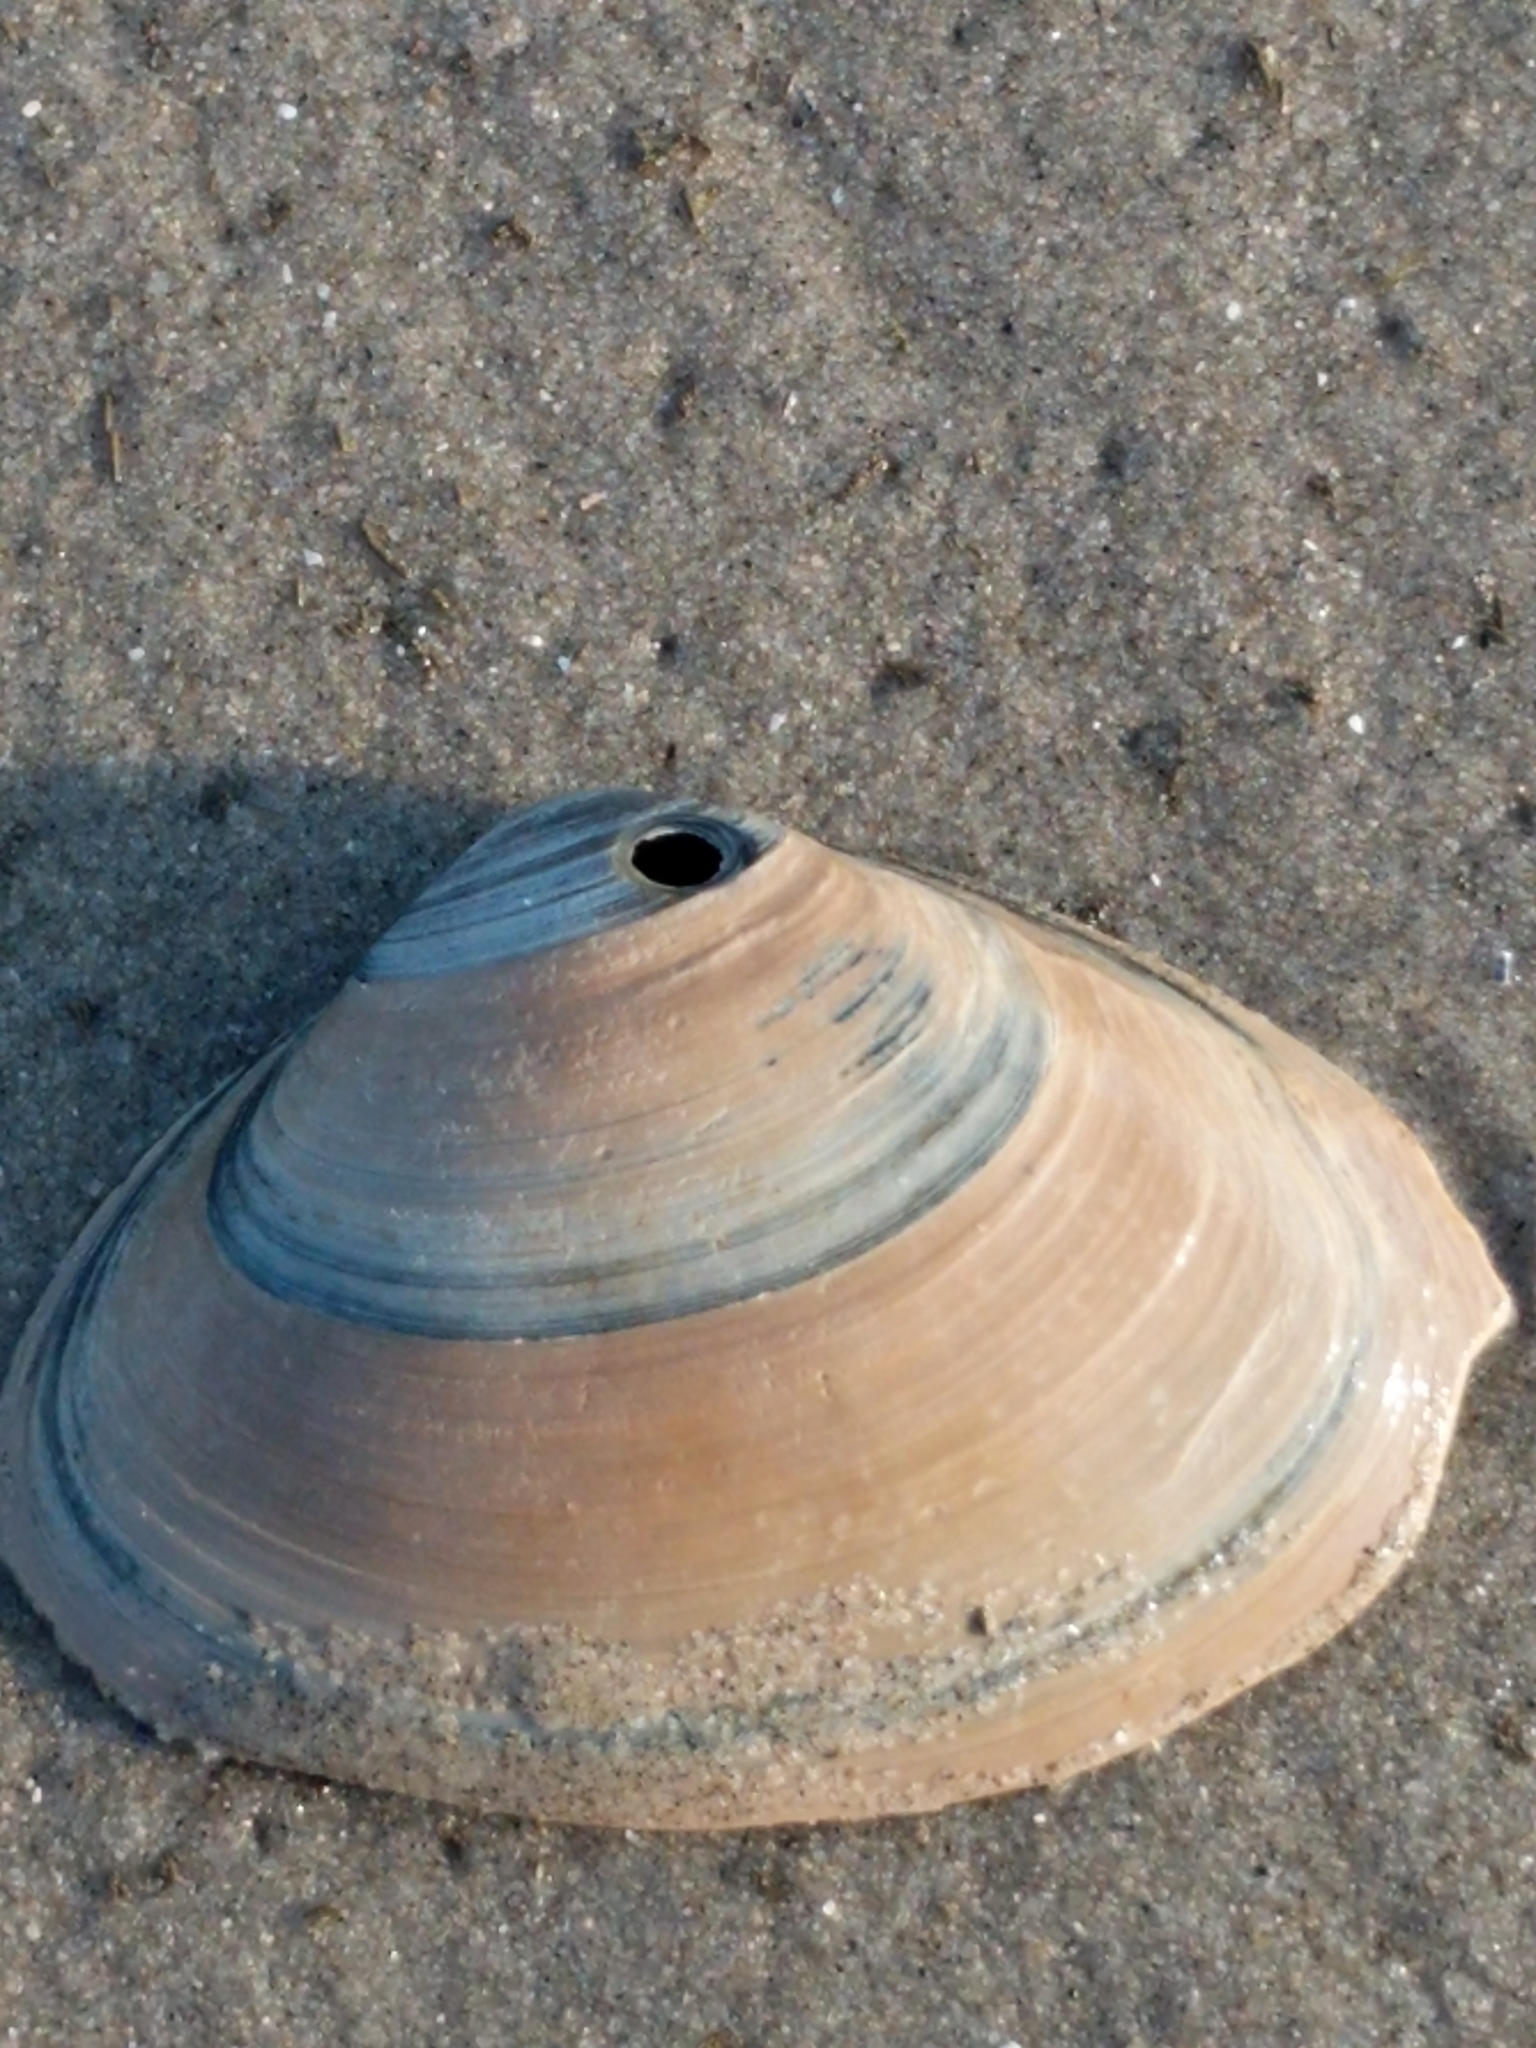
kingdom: Animalia
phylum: Mollusca
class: Bivalvia
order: Venerida
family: Mactridae
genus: Spisula
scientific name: Spisula solidissima
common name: Atlantic surf clam
